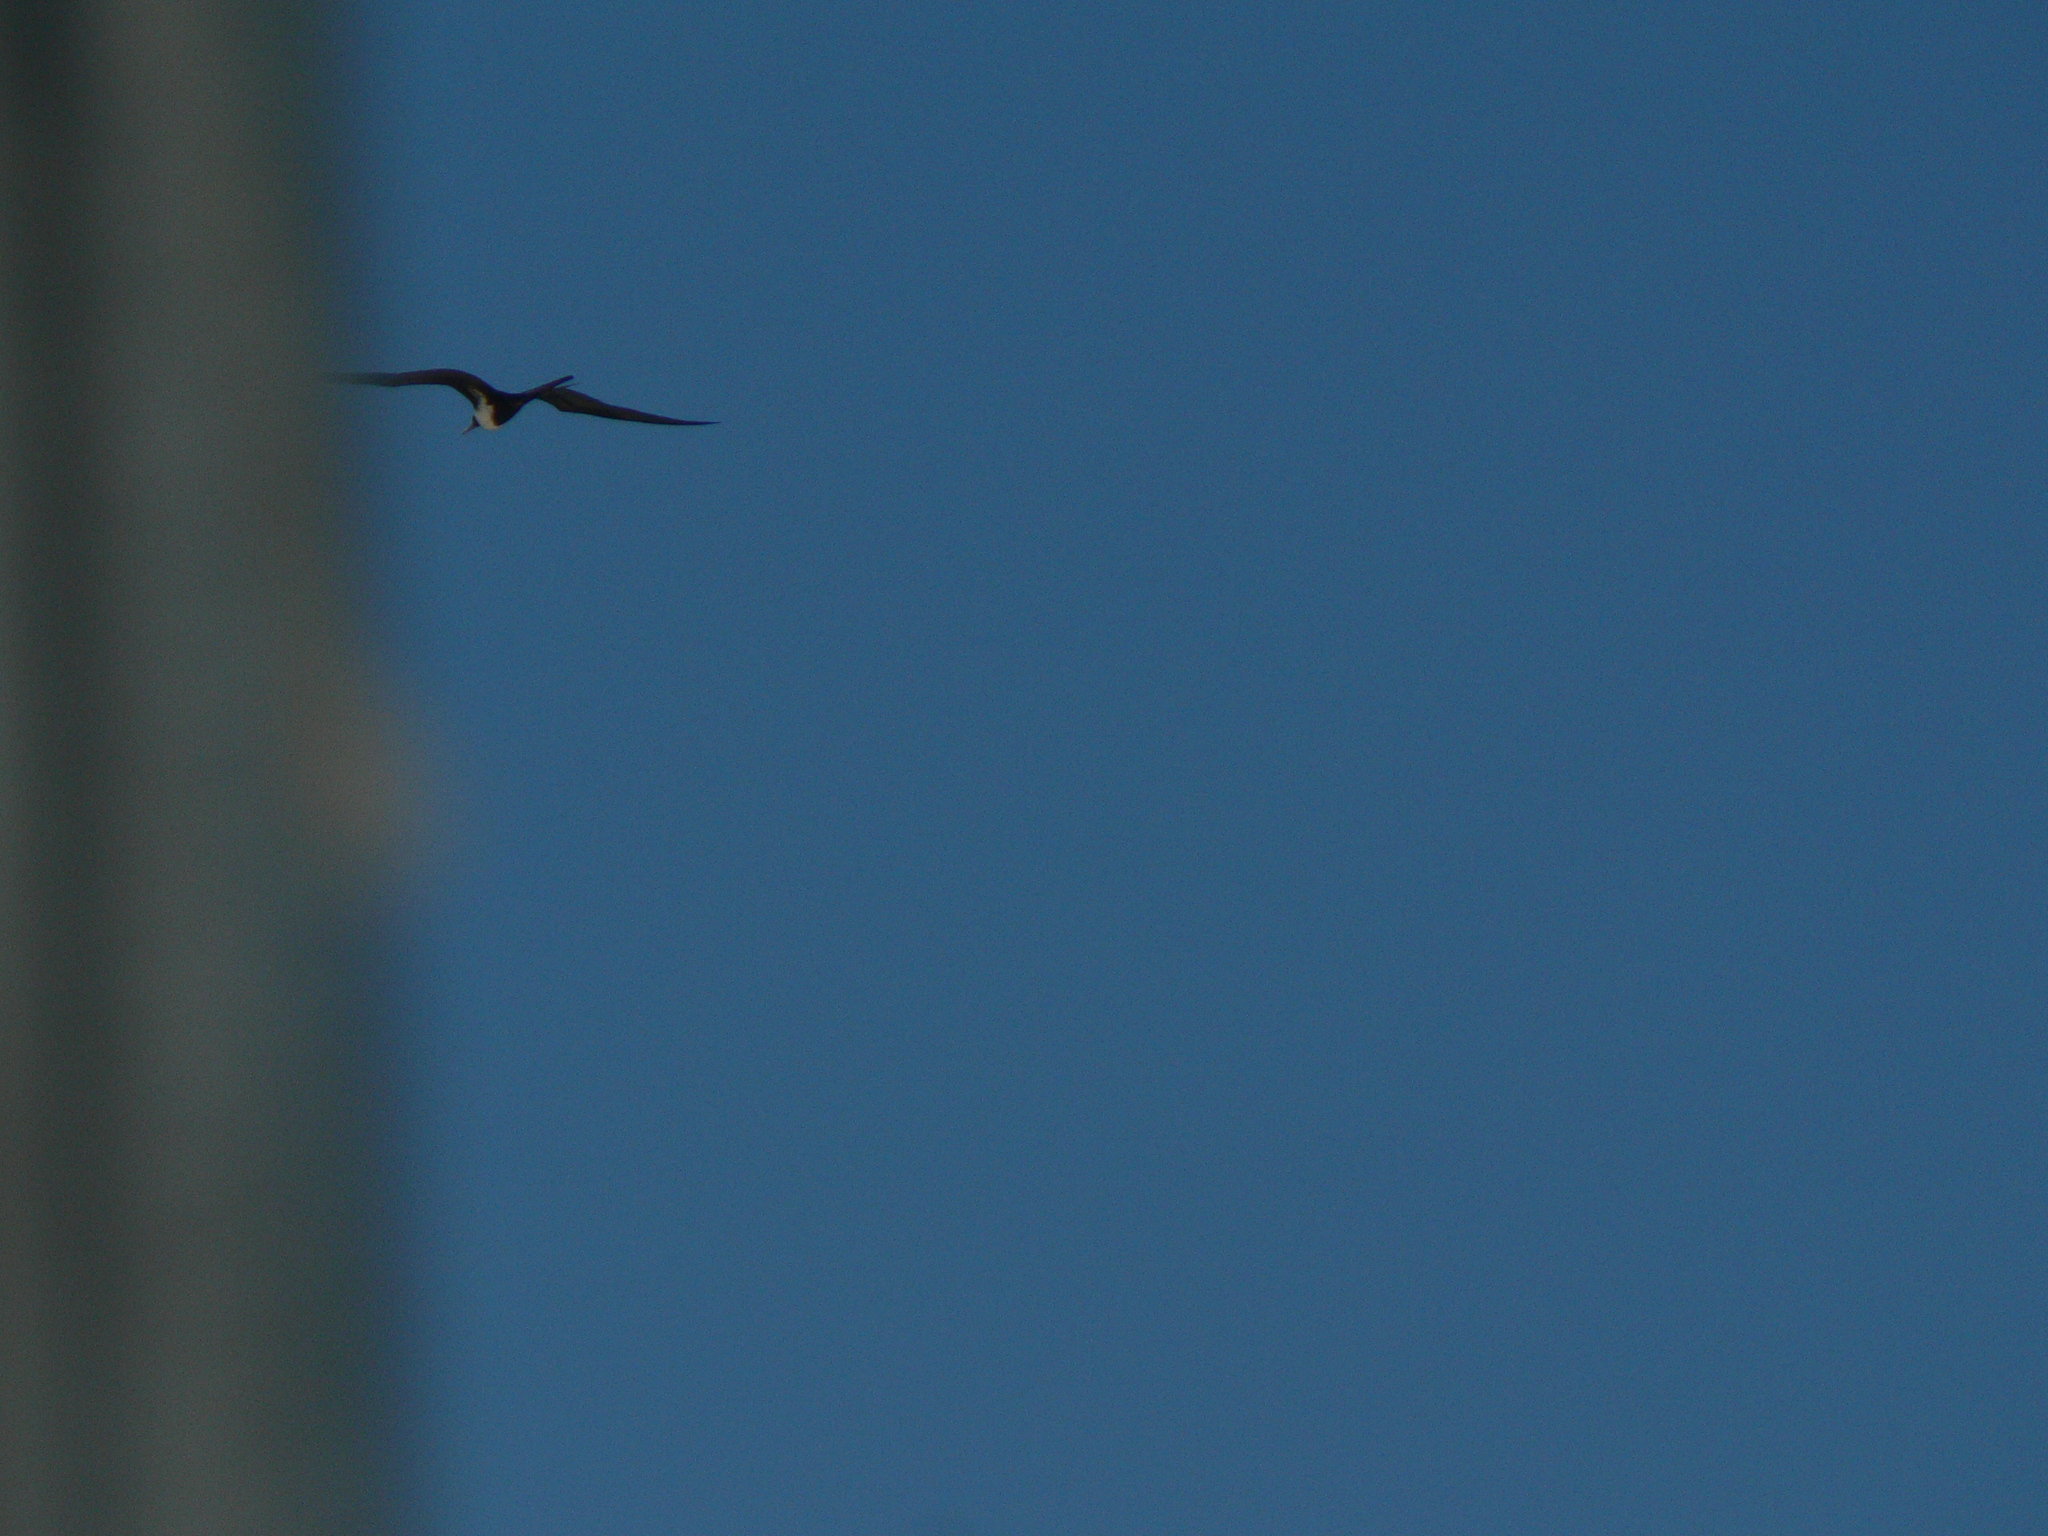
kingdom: Animalia
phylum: Chordata
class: Aves
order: Suliformes
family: Fregatidae
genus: Fregata
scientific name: Fregata ariel
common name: Lesser frigatebird
